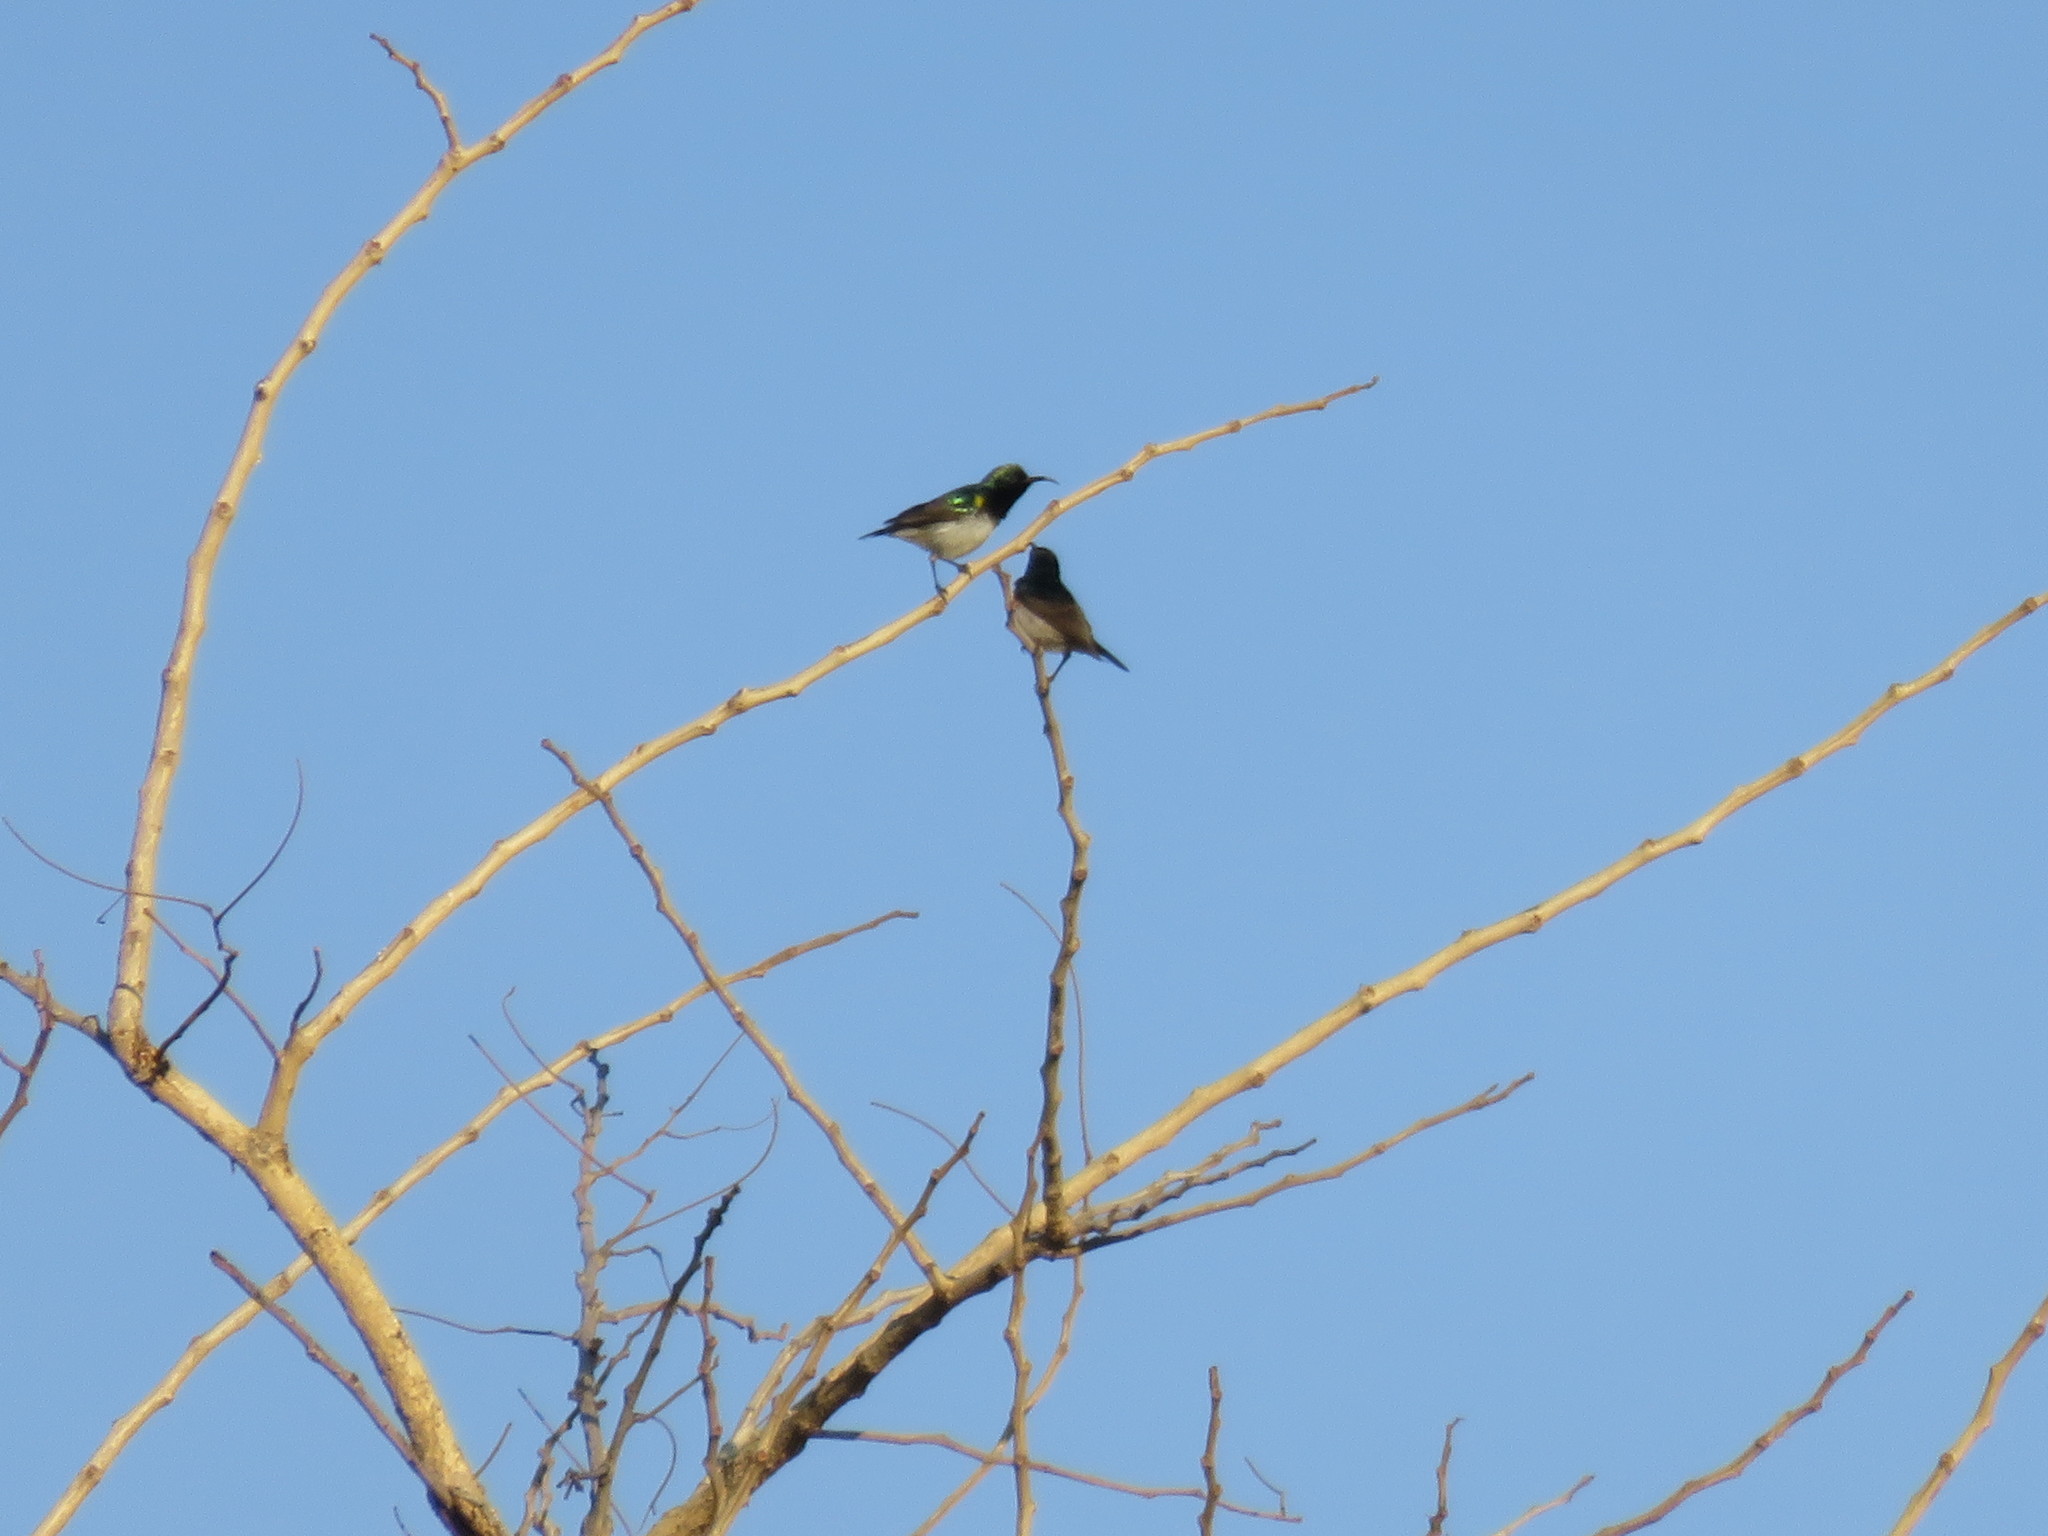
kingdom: Animalia
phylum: Chordata
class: Aves
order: Passeriformes
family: Nectariniidae
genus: Cinnyris
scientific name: Cinnyris talatala
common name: White-bellied sunbird
